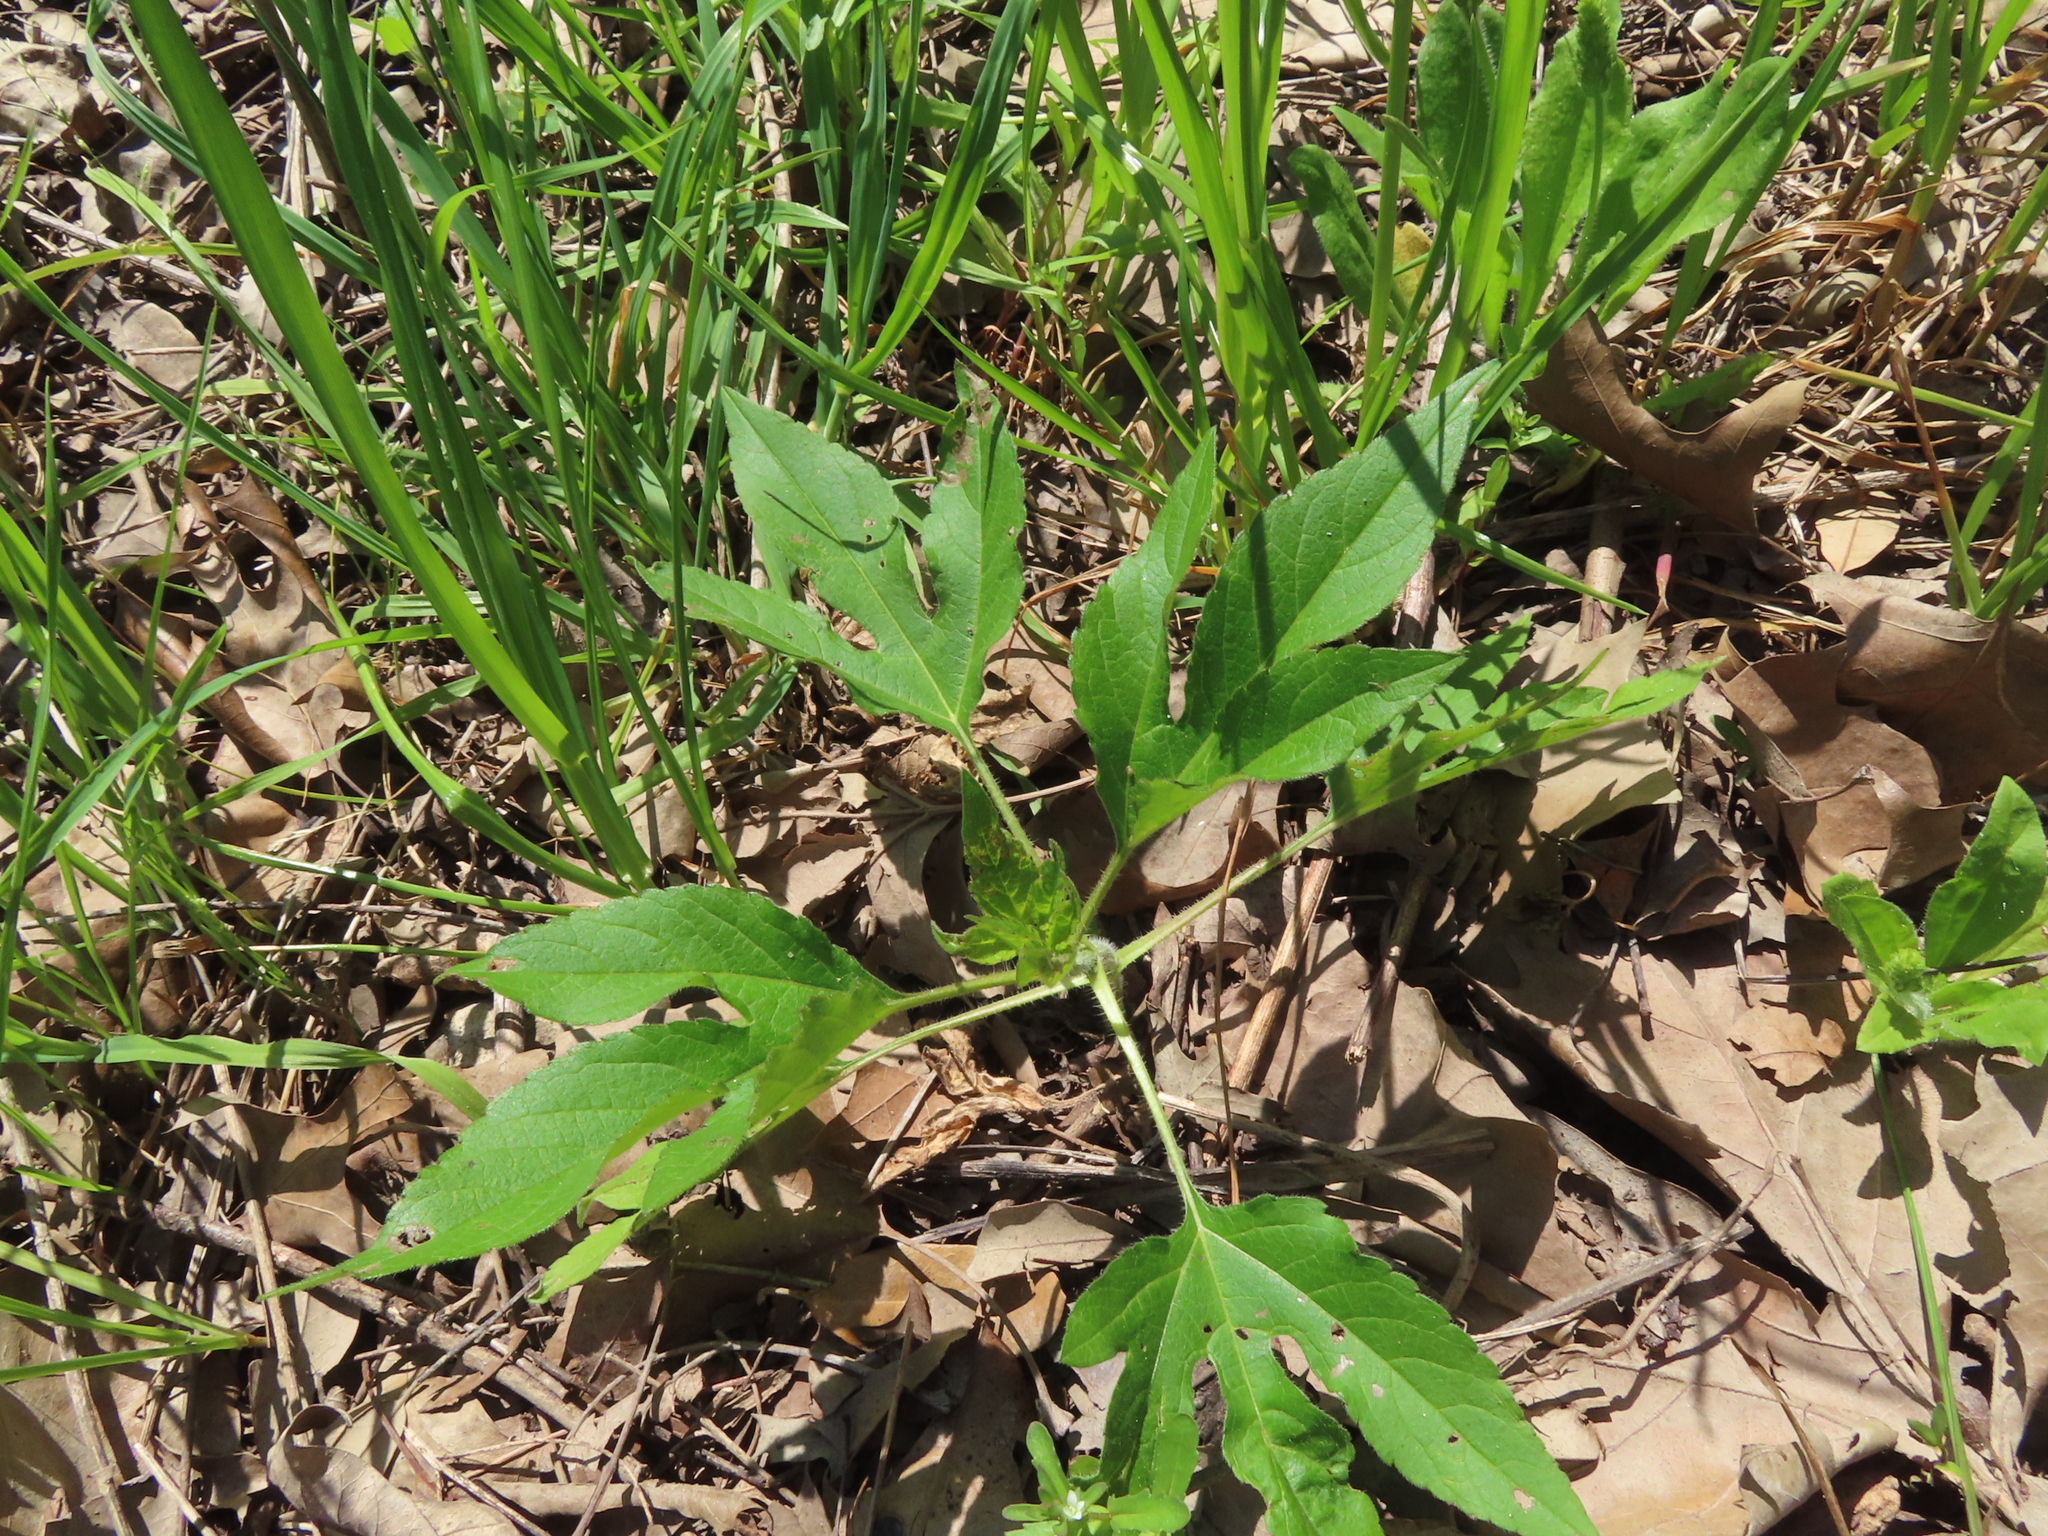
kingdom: Plantae
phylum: Tracheophyta
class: Magnoliopsida
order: Asterales
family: Asteraceae
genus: Ambrosia
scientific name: Ambrosia trifida
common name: Giant ragweed
